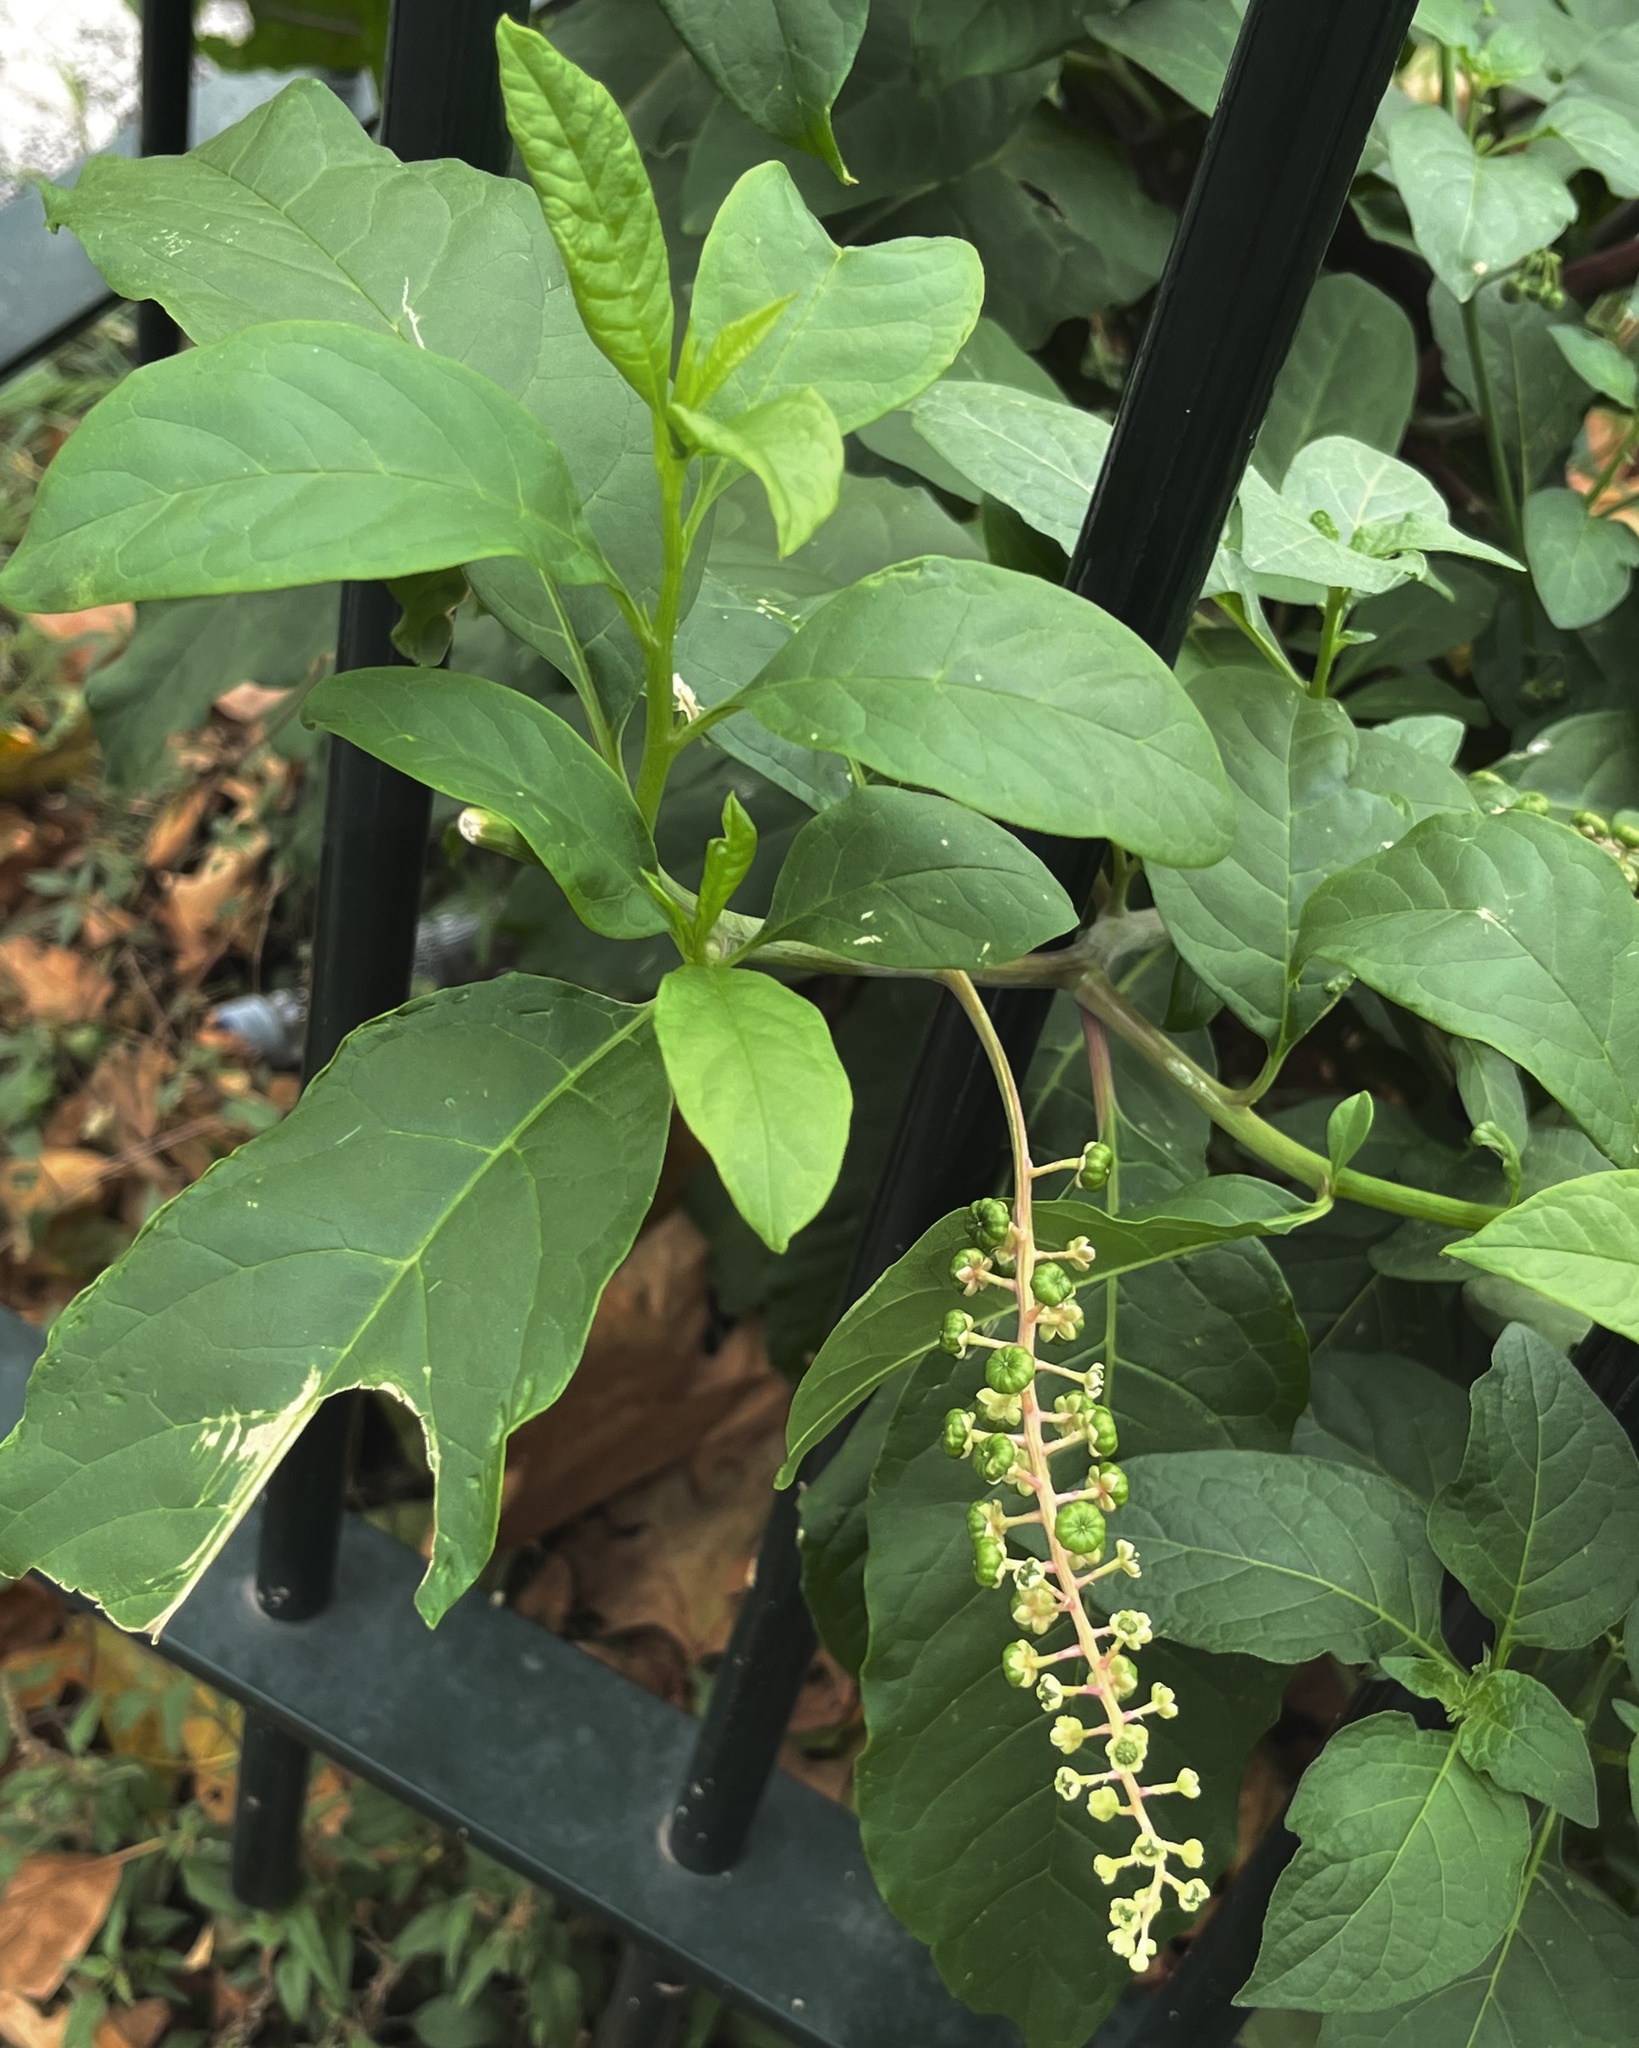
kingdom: Plantae
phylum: Tracheophyta
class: Magnoliopsida
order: Caryophyllales
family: Phytolaccaceae
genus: Phytolacca
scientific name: Phytolacca americana
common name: American pokeweed
